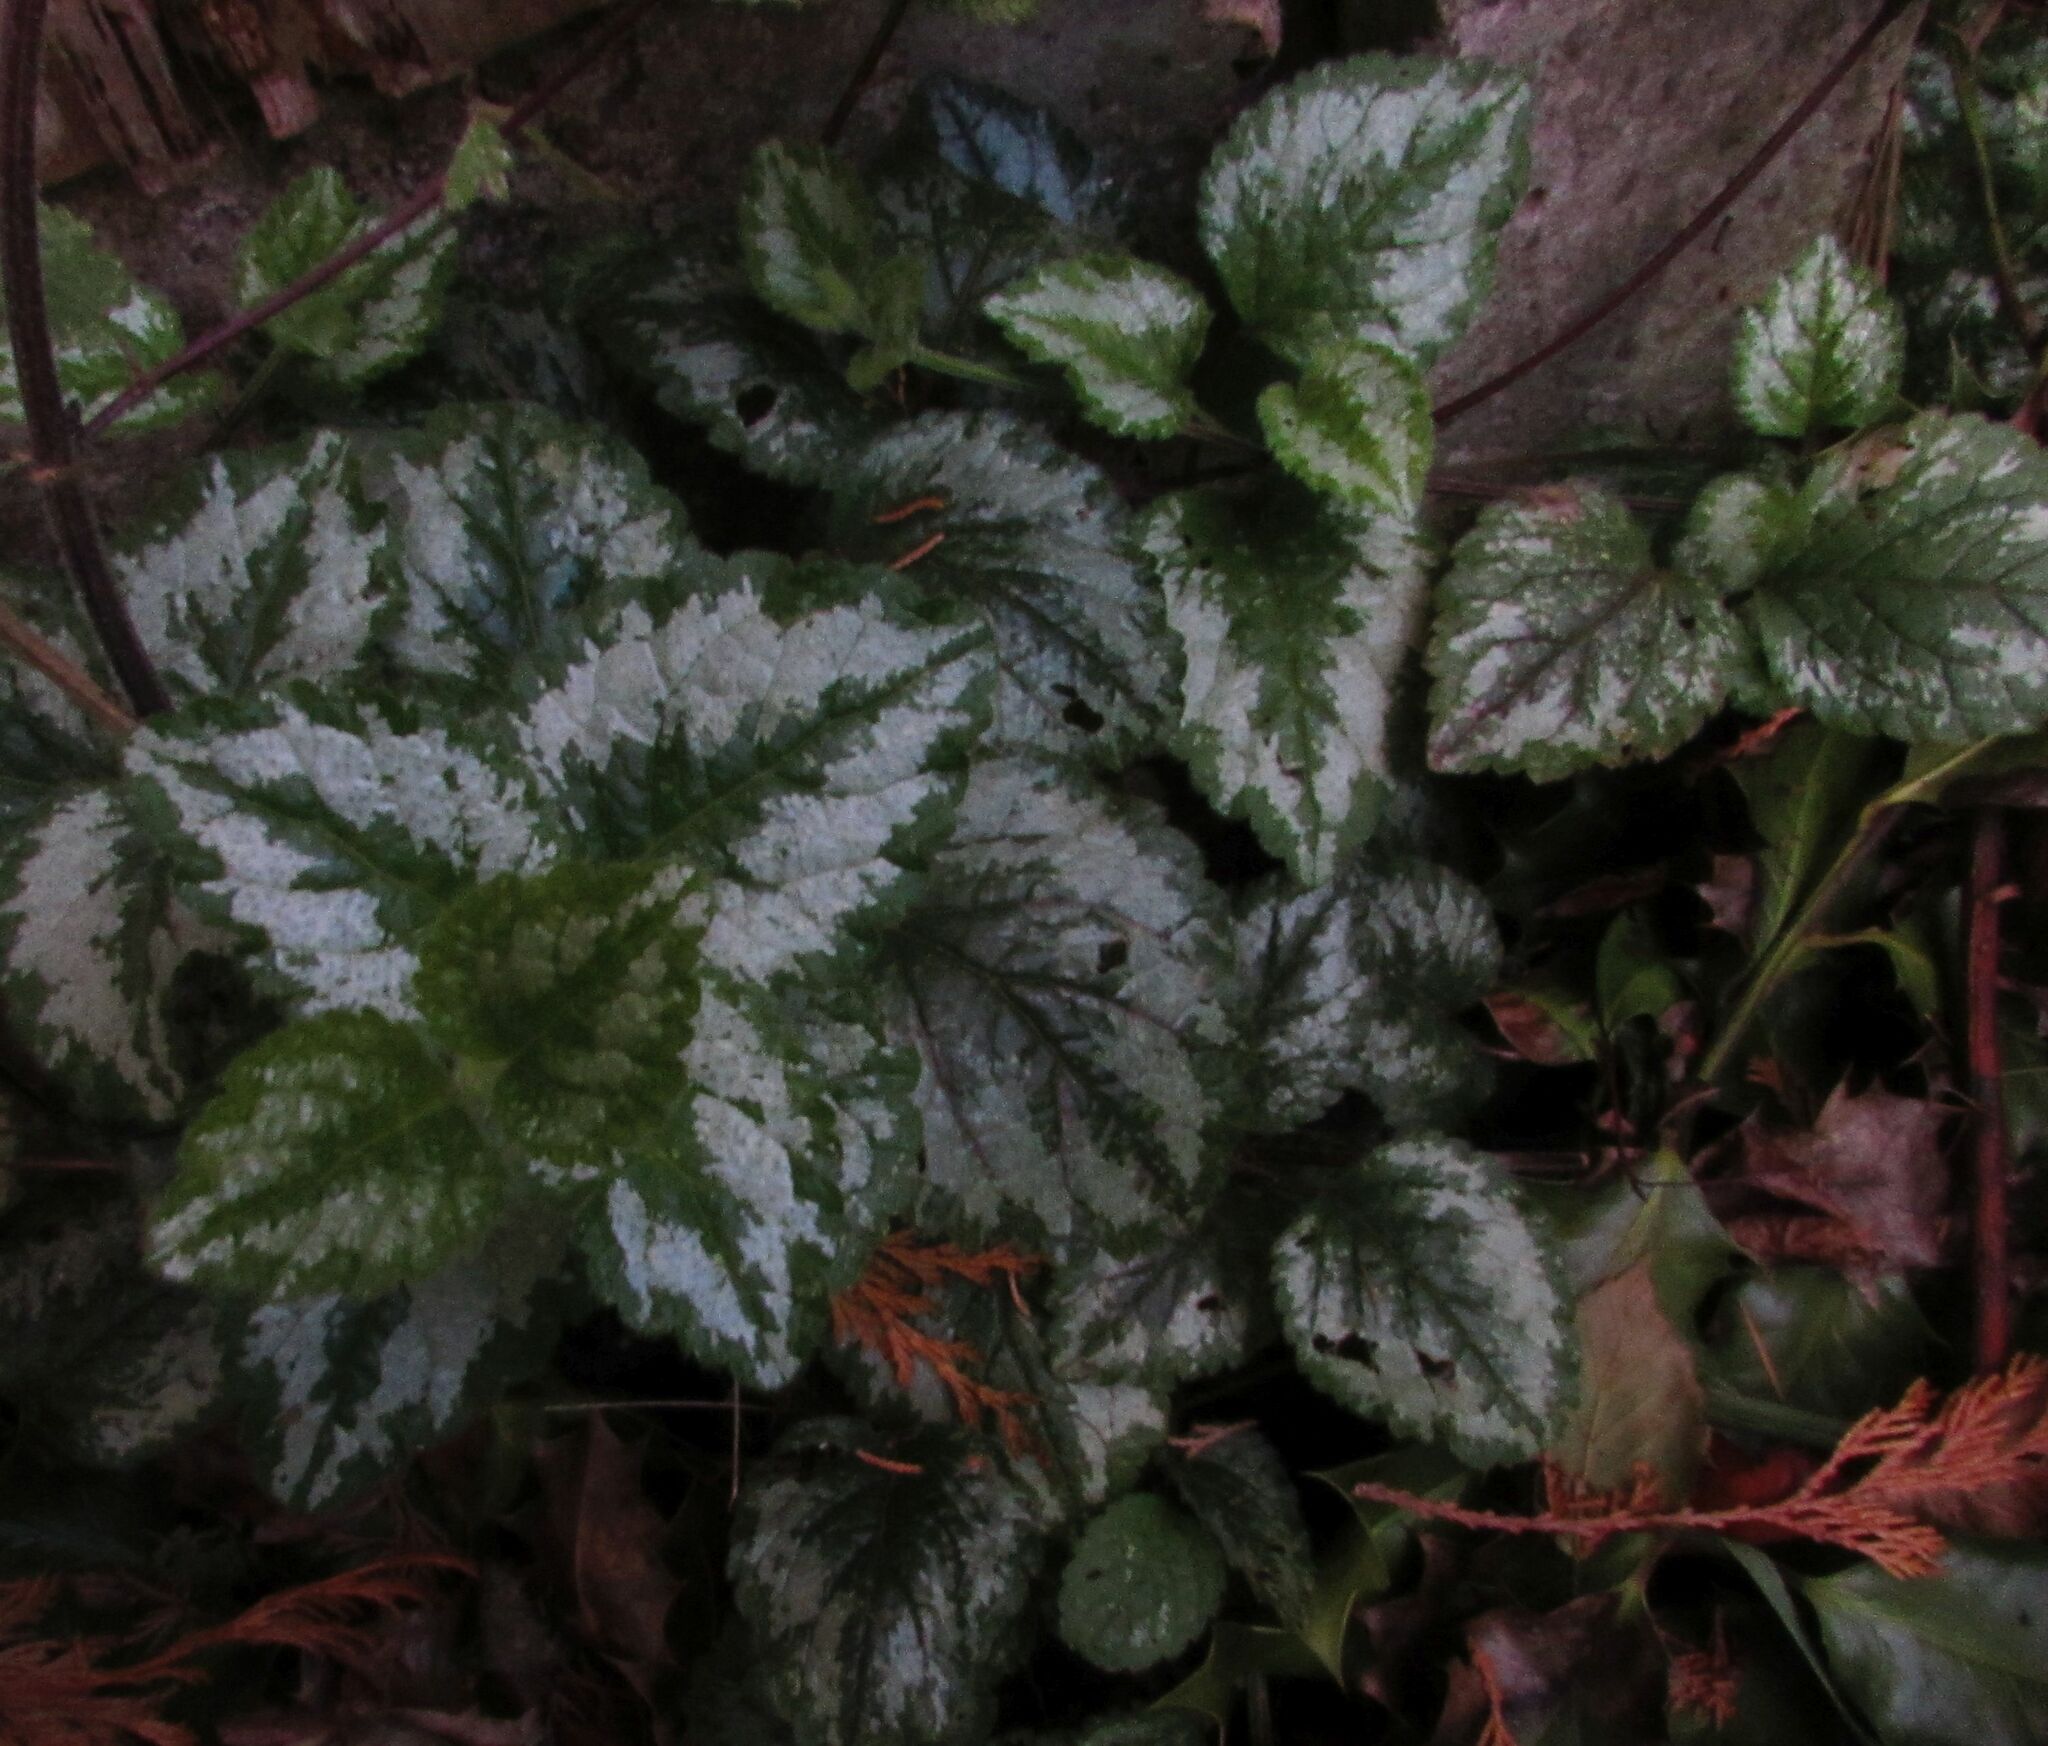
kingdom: Plantae
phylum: Tracheophyta
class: Magnoliopsida
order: Lamiales
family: Lamiaceae
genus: Lamium
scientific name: Lamium galeobdolon
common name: Yellow archangel
